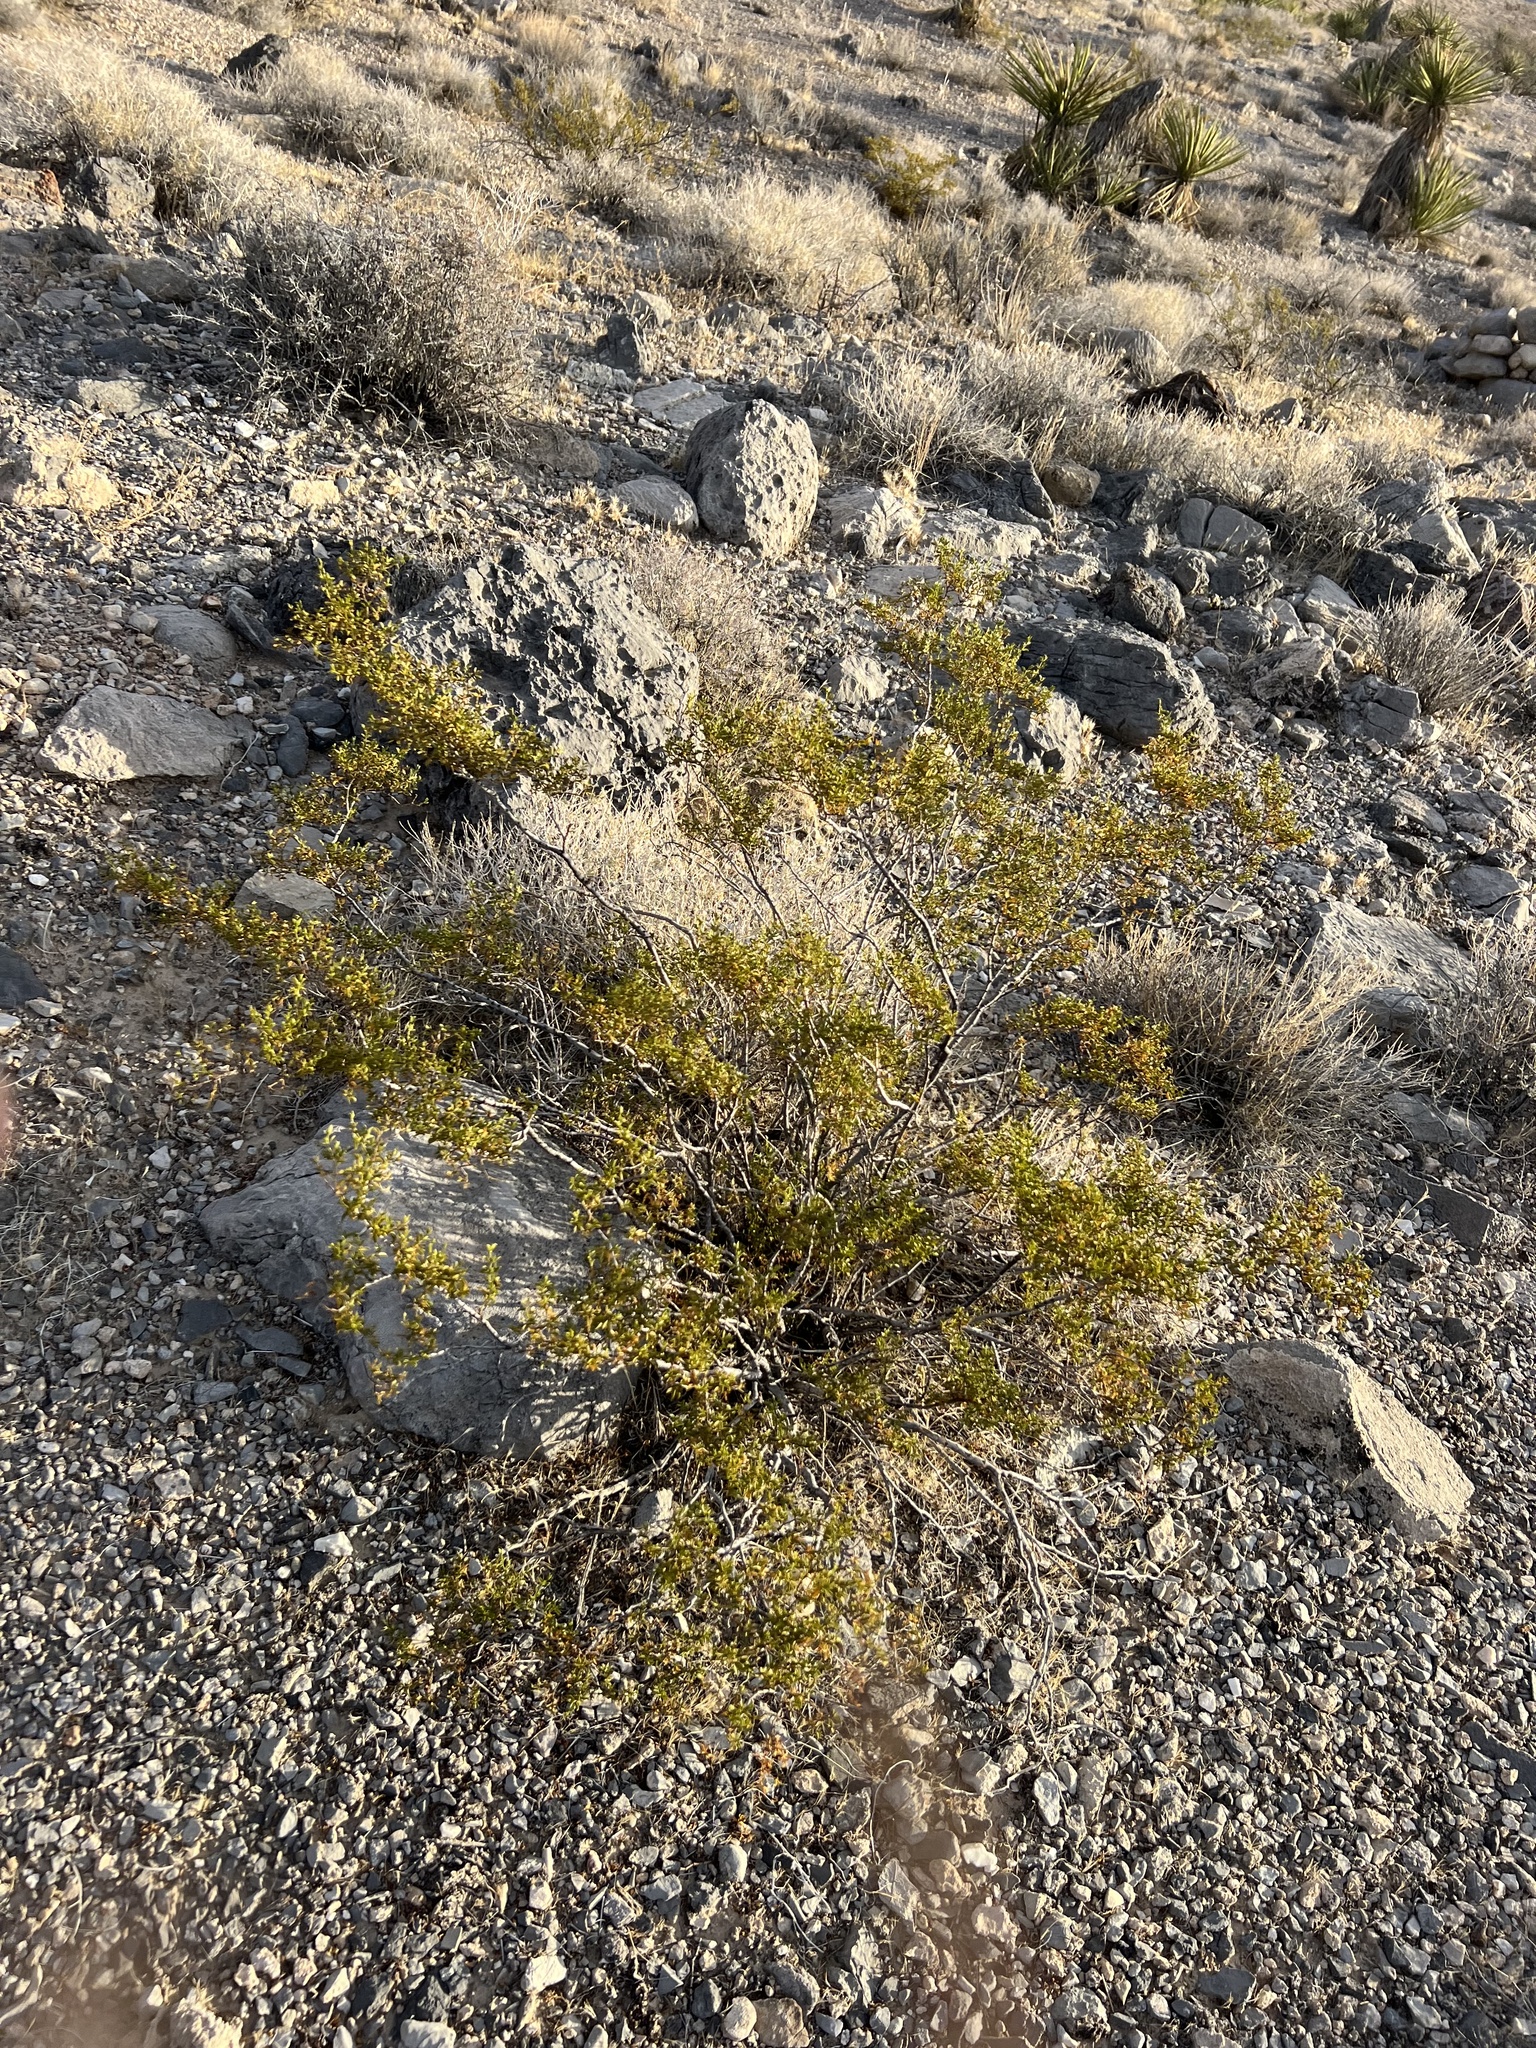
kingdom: Plantae
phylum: Tracheophyta
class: Magnoliopsida
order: Zygophyllales
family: Zygophyllaceae
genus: Larrea
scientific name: Larrea tridentata
